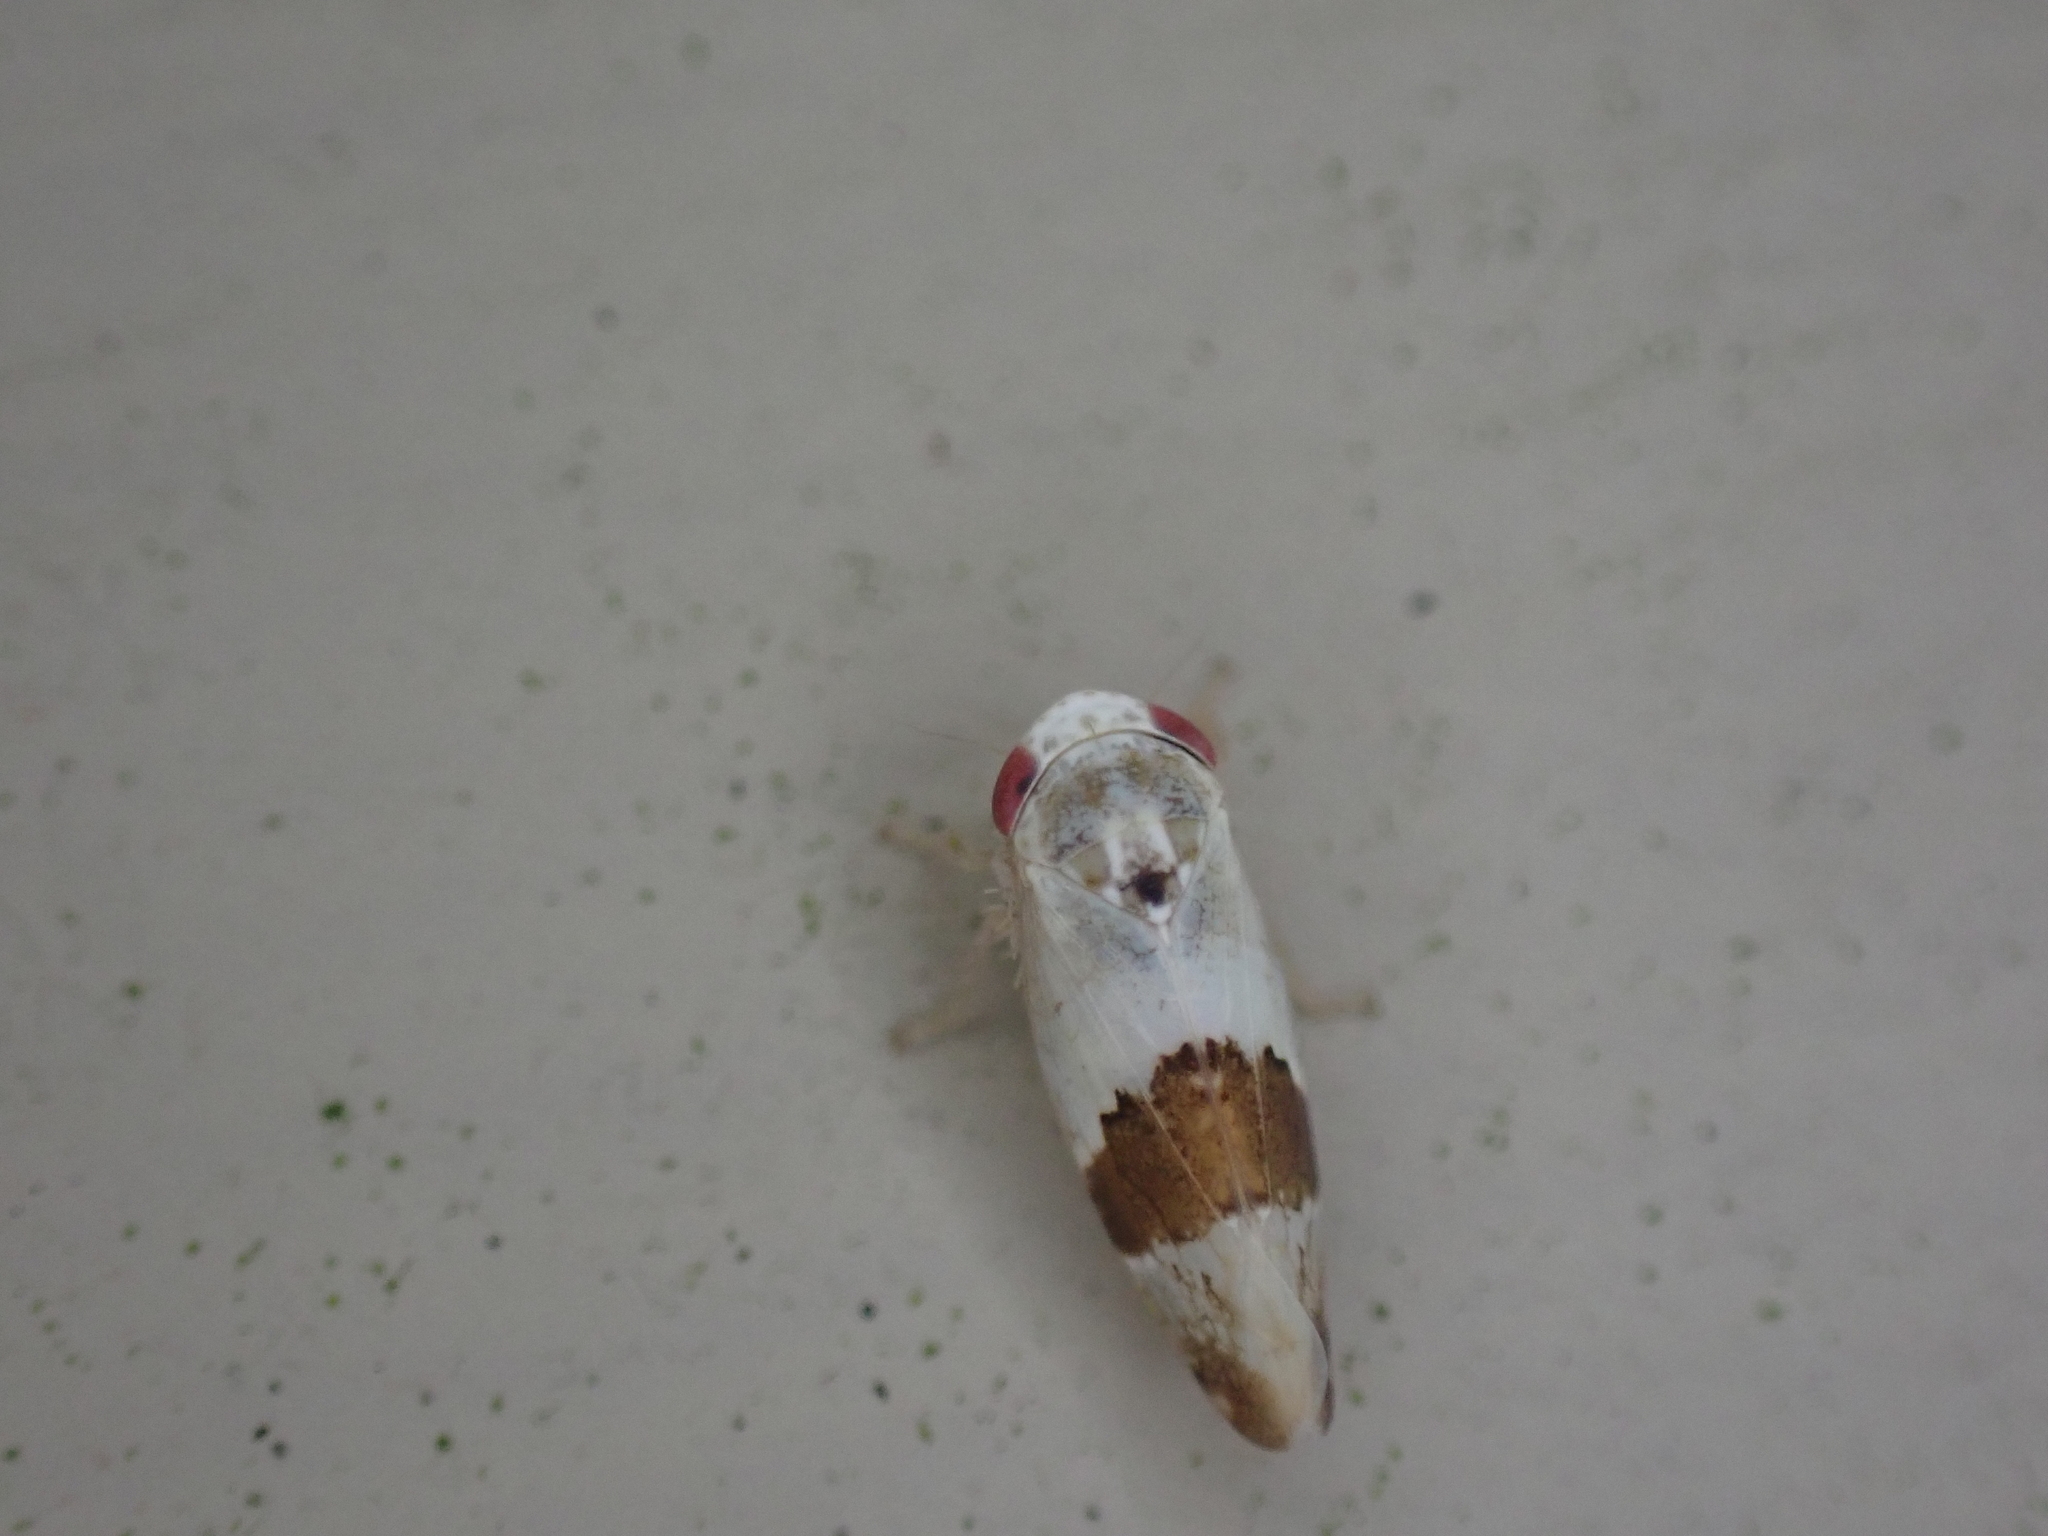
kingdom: Animalia
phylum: Arthropoda
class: Insecta
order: Hemiptera
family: Cicadellidae
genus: Norvellina
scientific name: Norvellina seminuda
